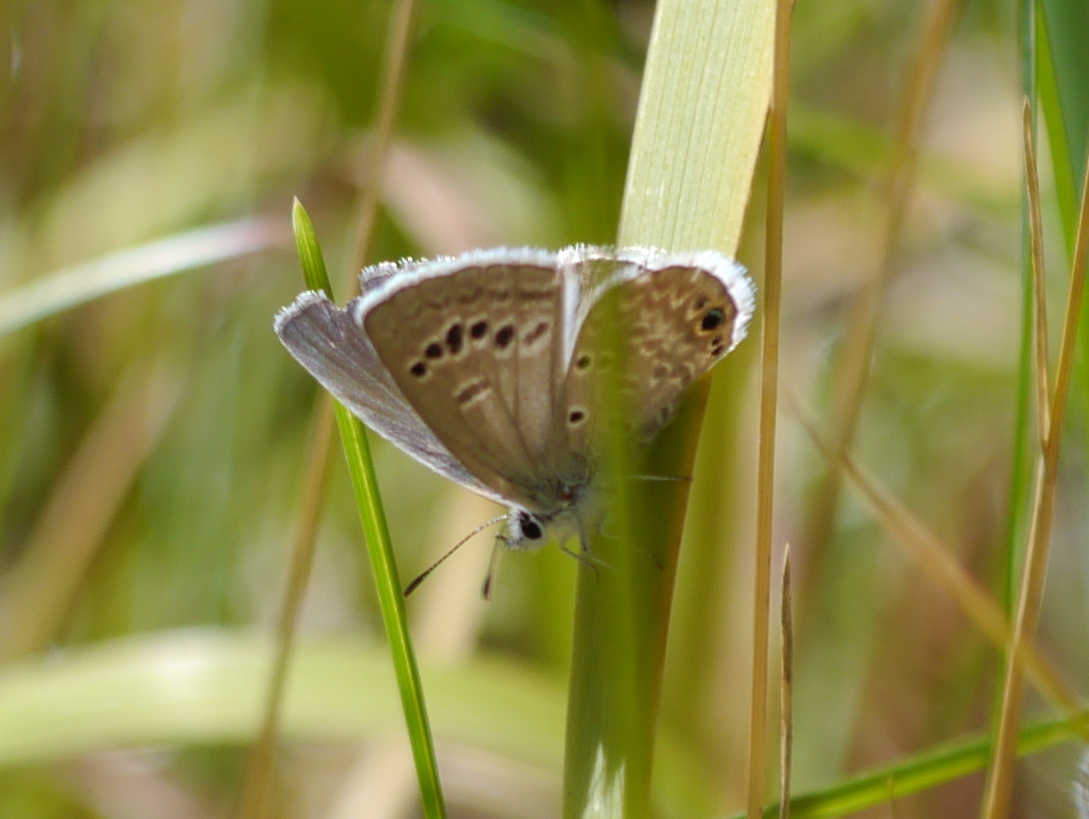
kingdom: Animalia
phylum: Arthropoda
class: Insecta
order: Lepidoptera
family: Lycaenidae
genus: Echinargus
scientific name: Echinargus isola
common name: Reakirt's blue
